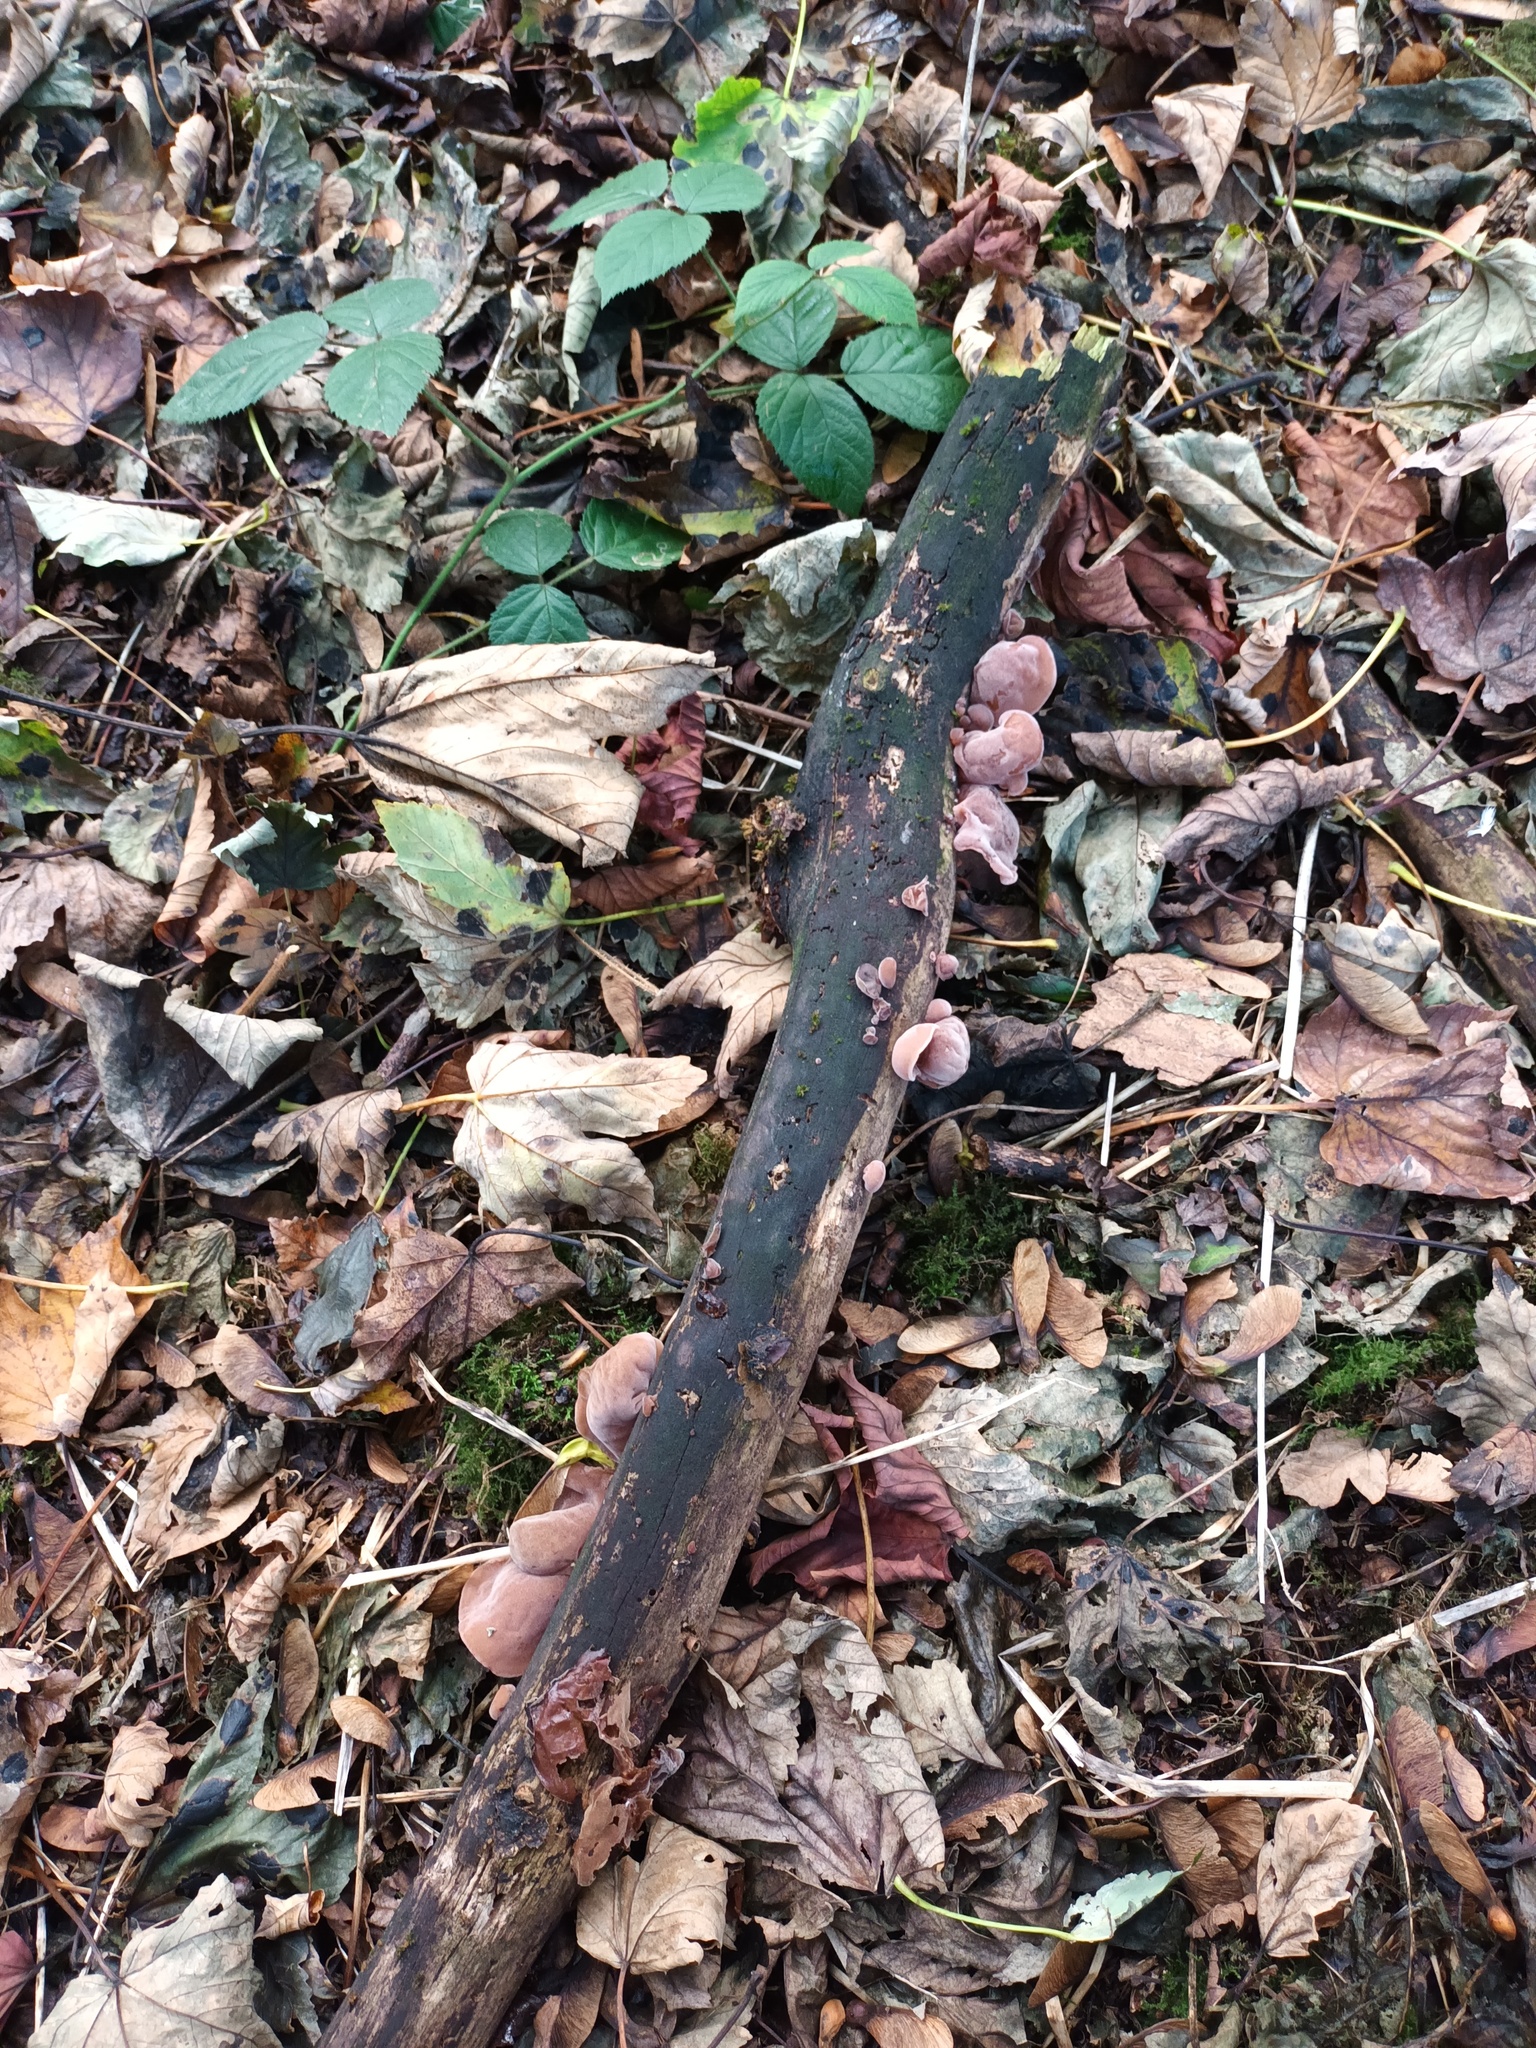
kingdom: Fungi
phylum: Basidiomycota
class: Agaricomycetes
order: Auriculariales
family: Auriculariaceae
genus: Auricularia
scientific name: Auricularia auricula-judae
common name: Jelly ear
